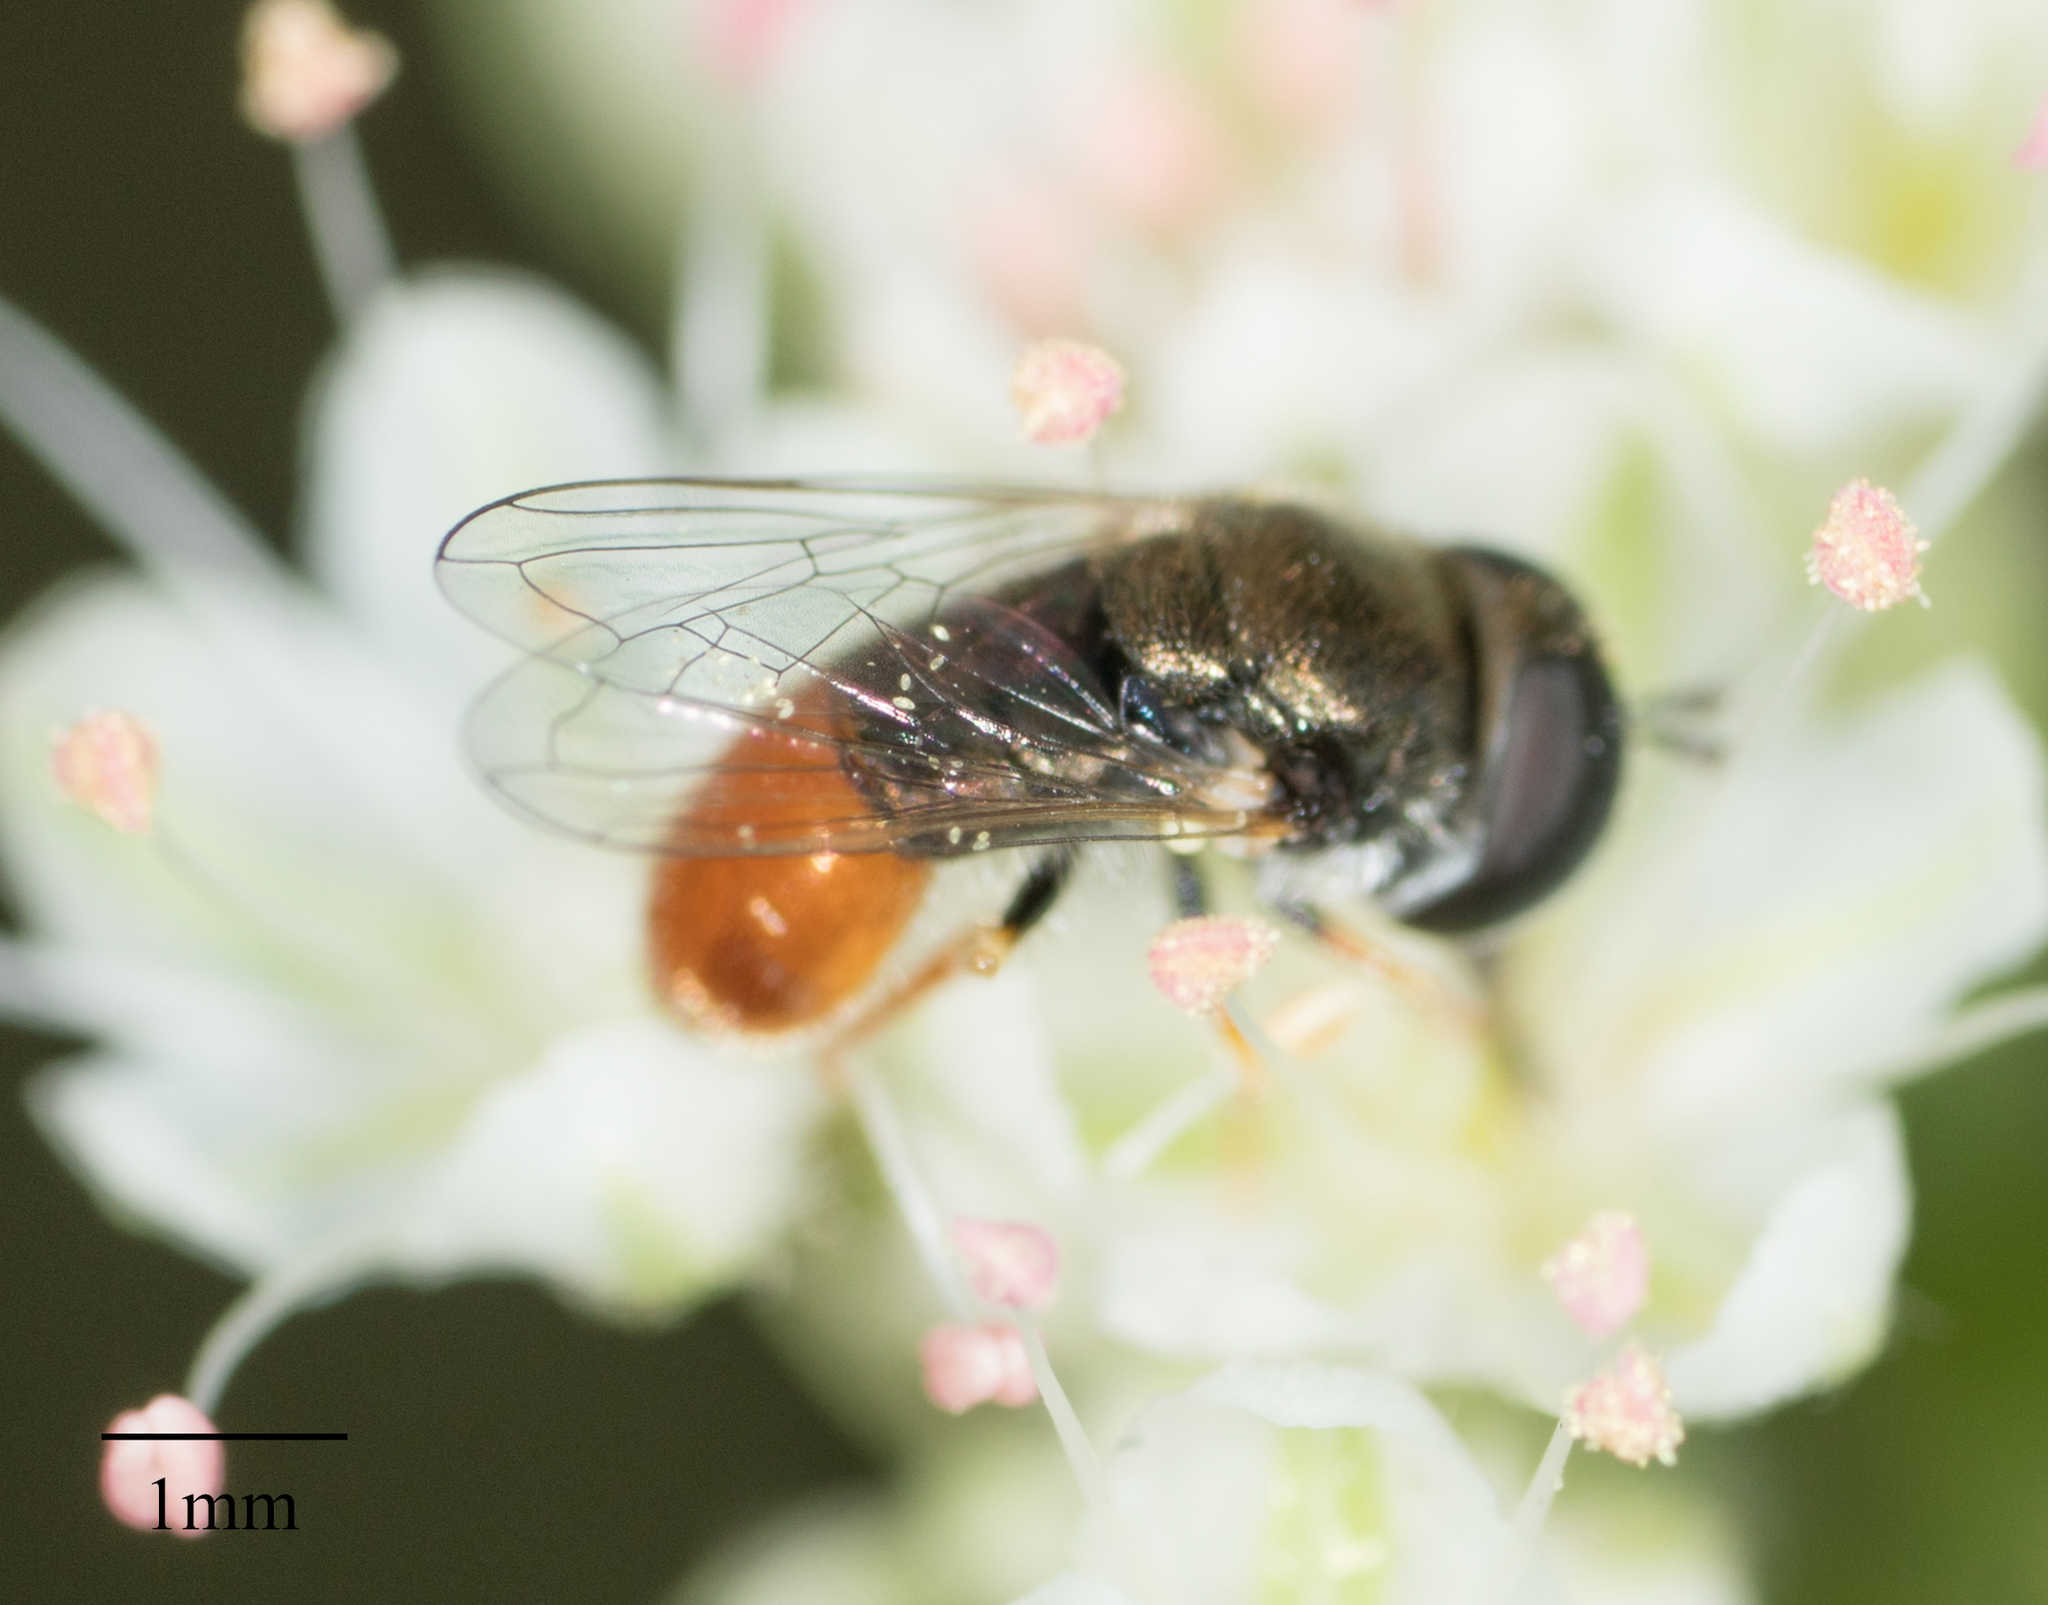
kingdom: Animalia
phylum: Arthropoda
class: Insecta
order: Diptera
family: Syrphidae
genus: Paragus
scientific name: Paragus haemorrhous
